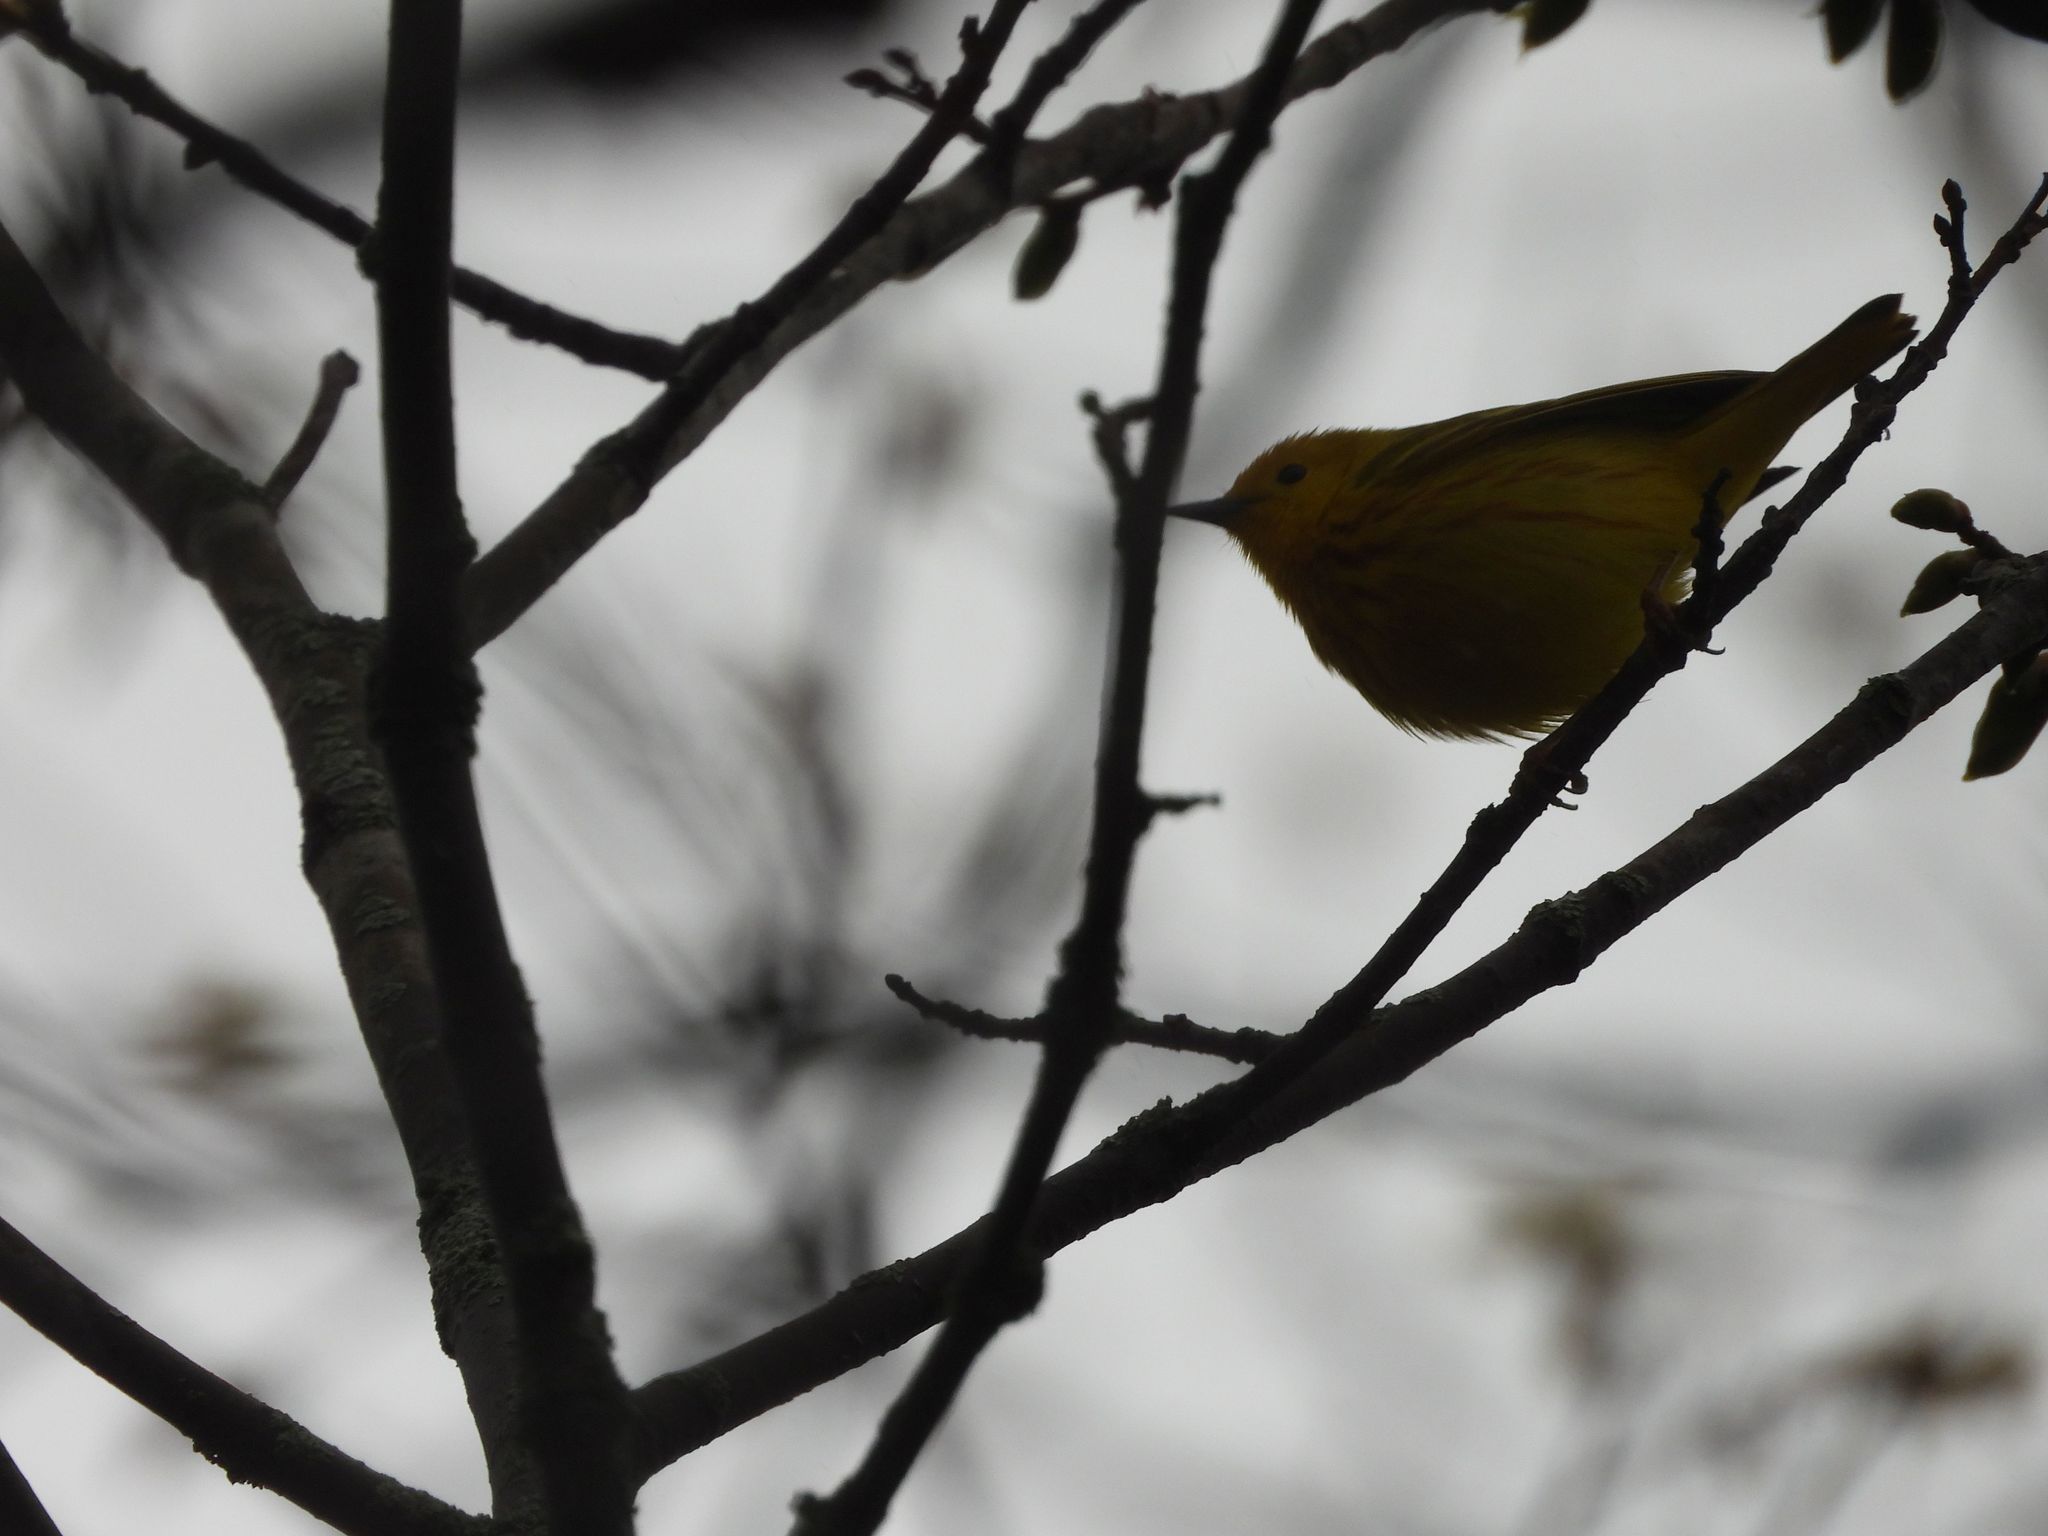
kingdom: Animalia
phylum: Chordata
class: Aves
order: Passeriformes
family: Parulidae
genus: Setophaga
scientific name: Setophaga petechia
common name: Yellow warbler
